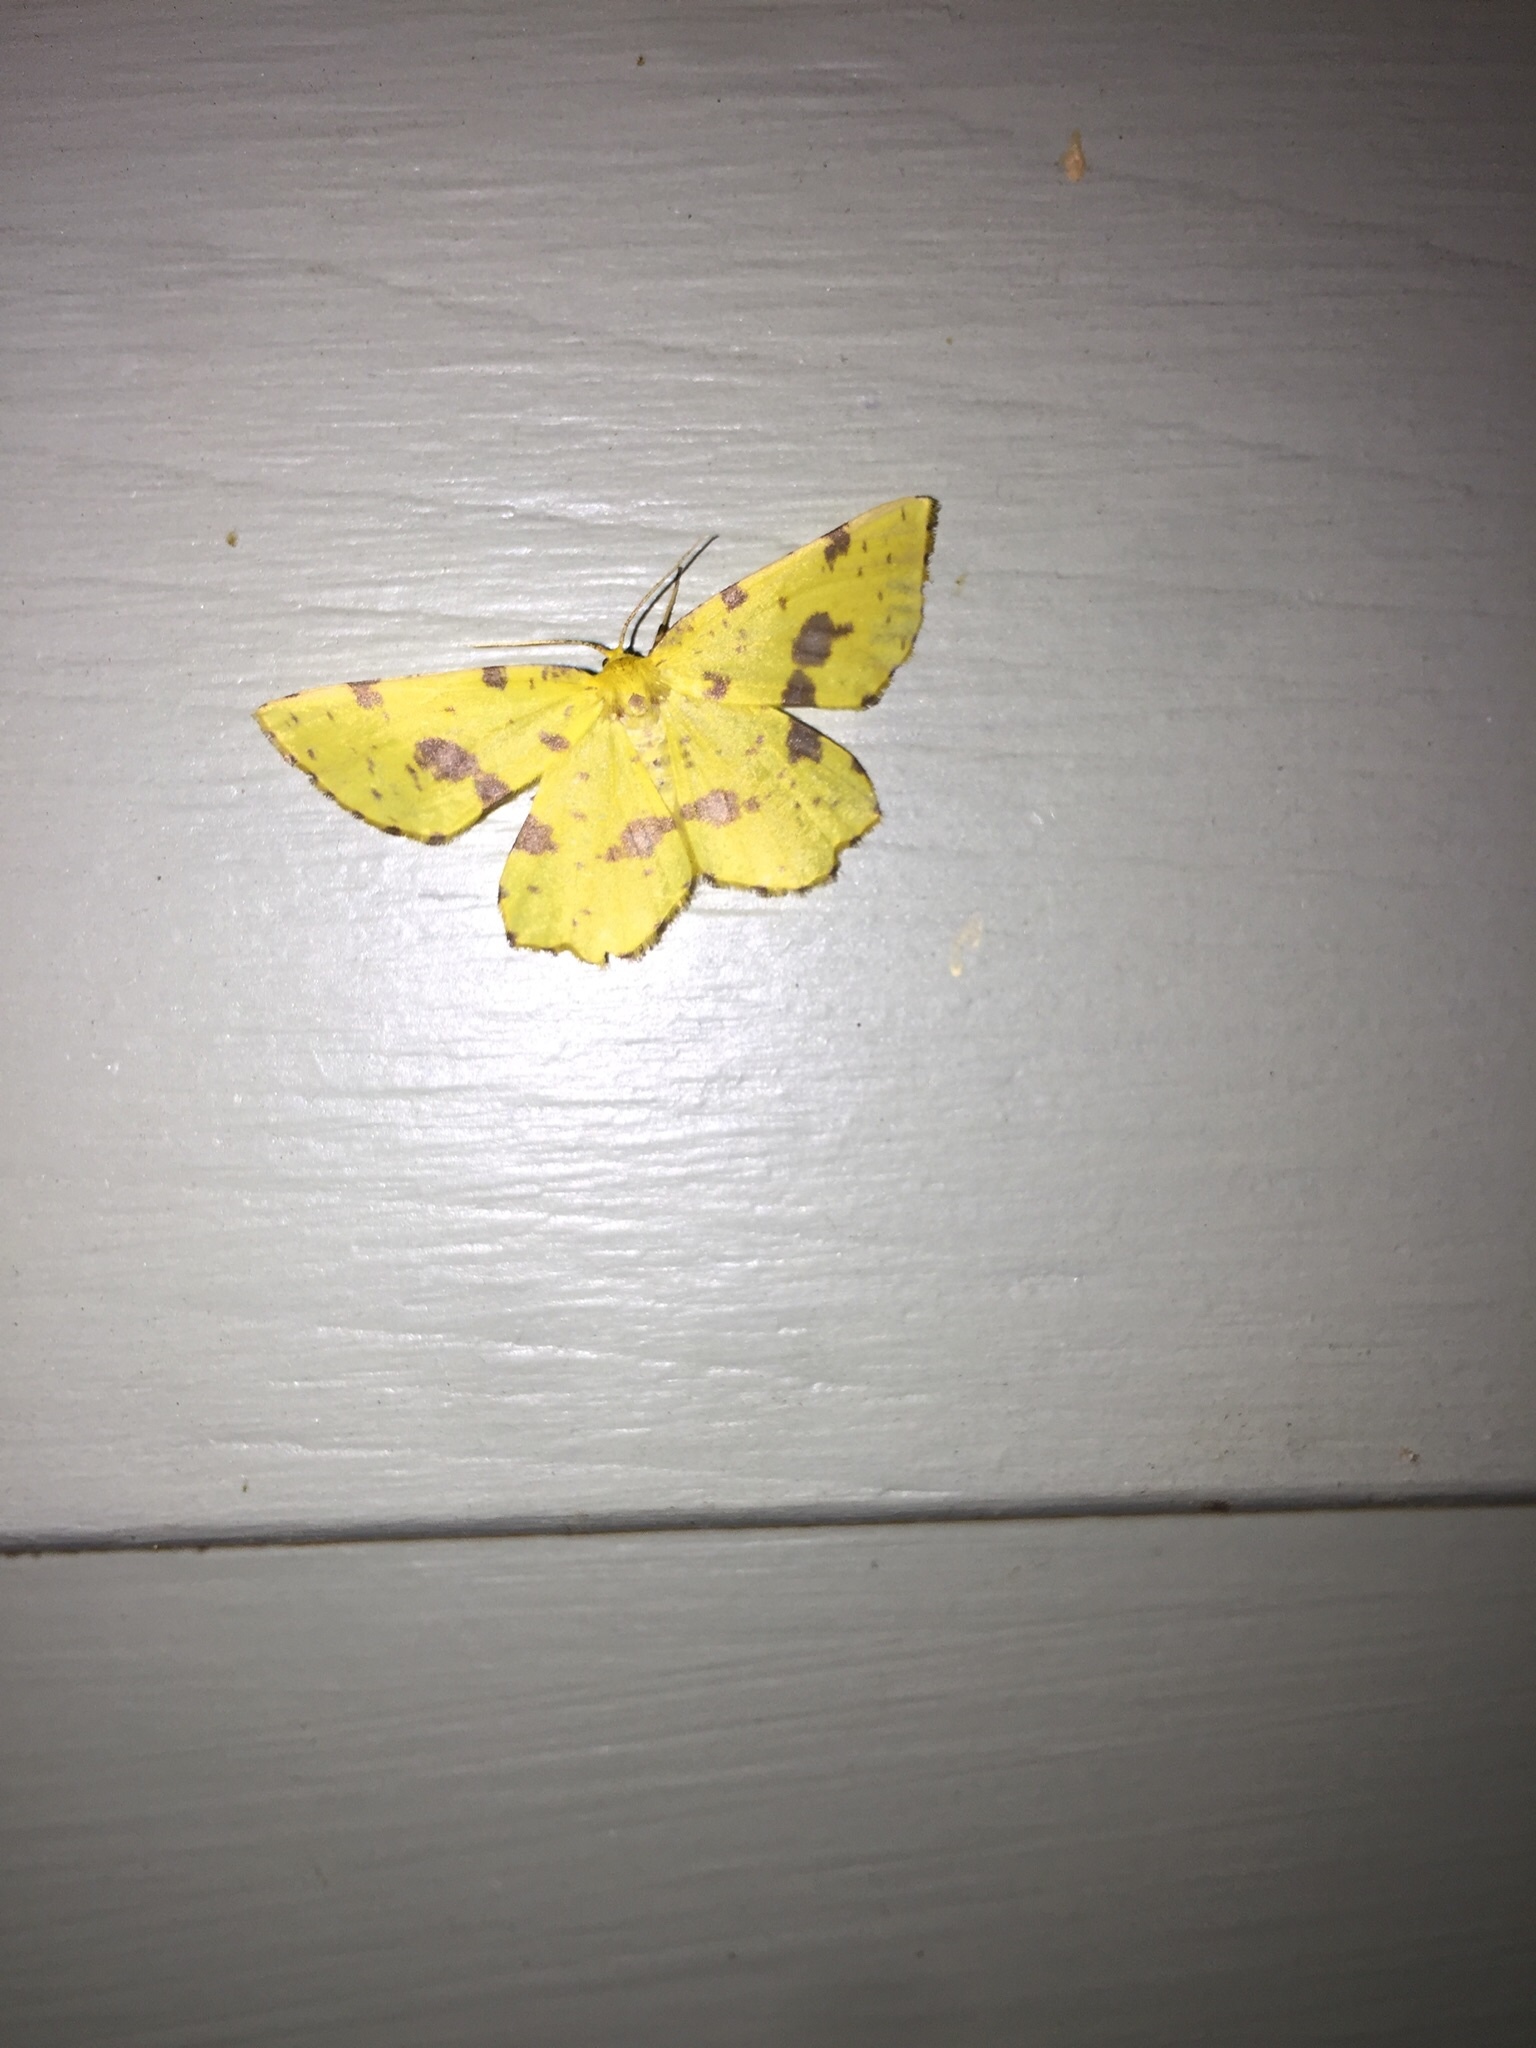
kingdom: Animalia
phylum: Arthropoda
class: Insecta
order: Lepidoptera
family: Geometridae
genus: Xanthotype
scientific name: Xanthotype
